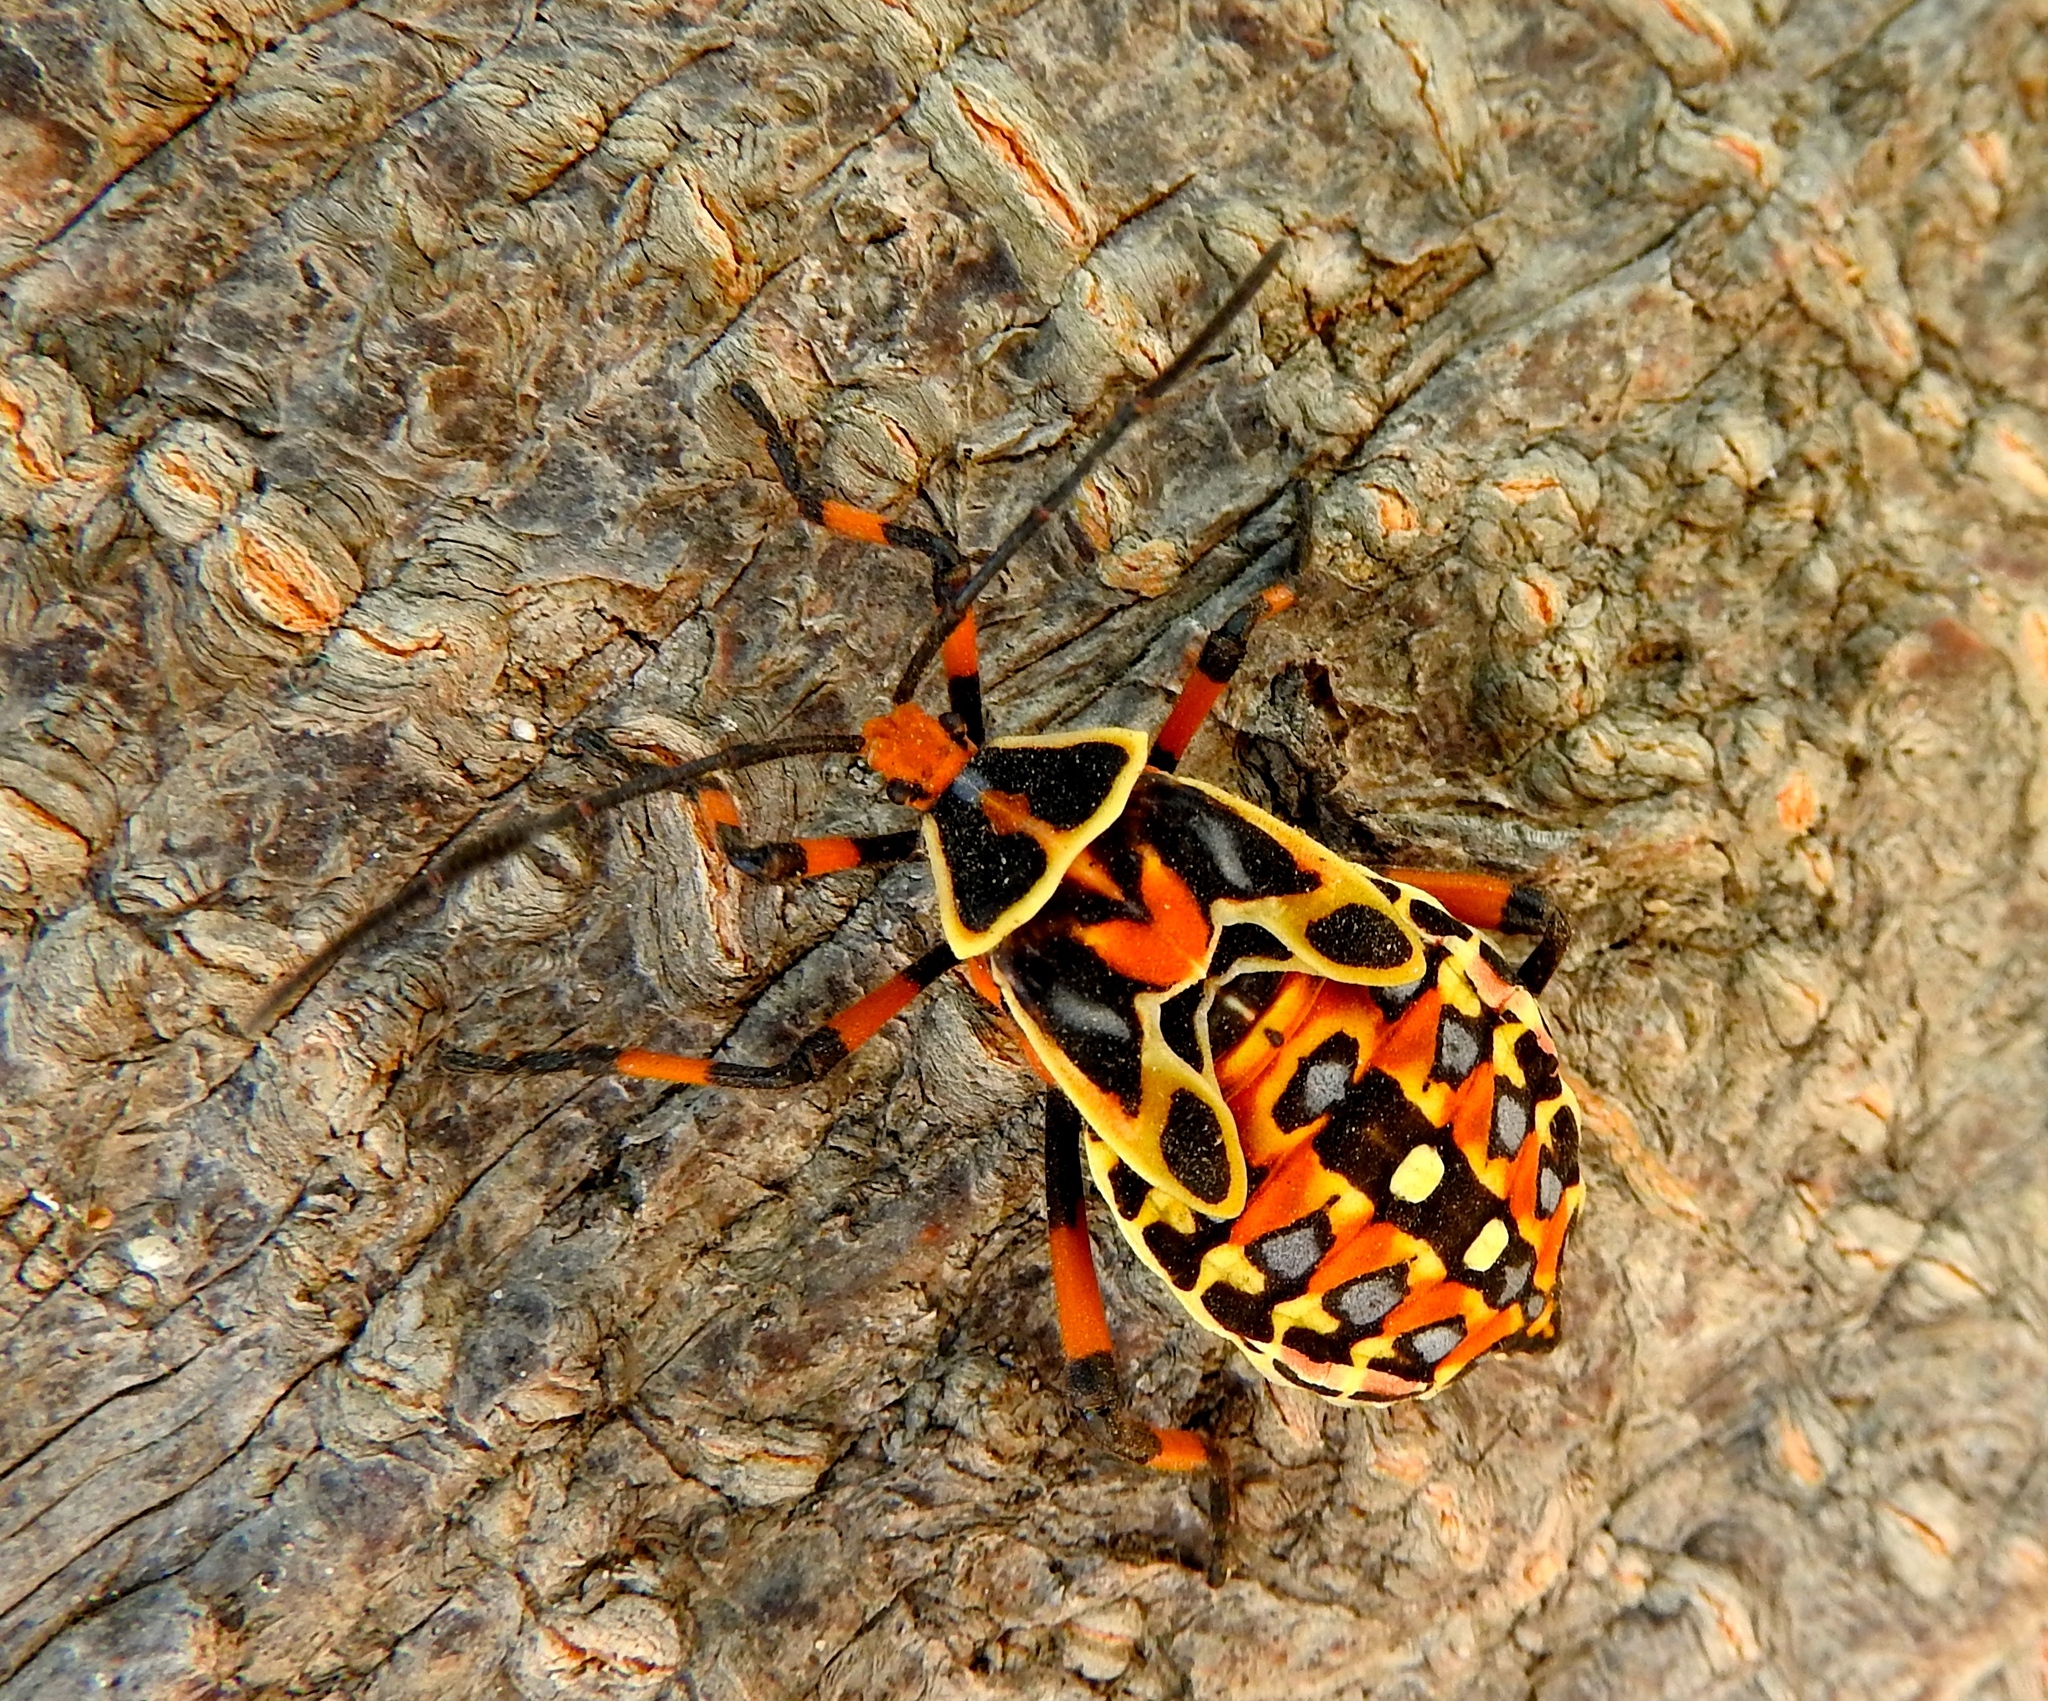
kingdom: Animalia
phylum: Arthropoda
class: Insecta
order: Hemiptera
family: Coreidae
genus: Pachylis
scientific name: Pachylis nervosus
